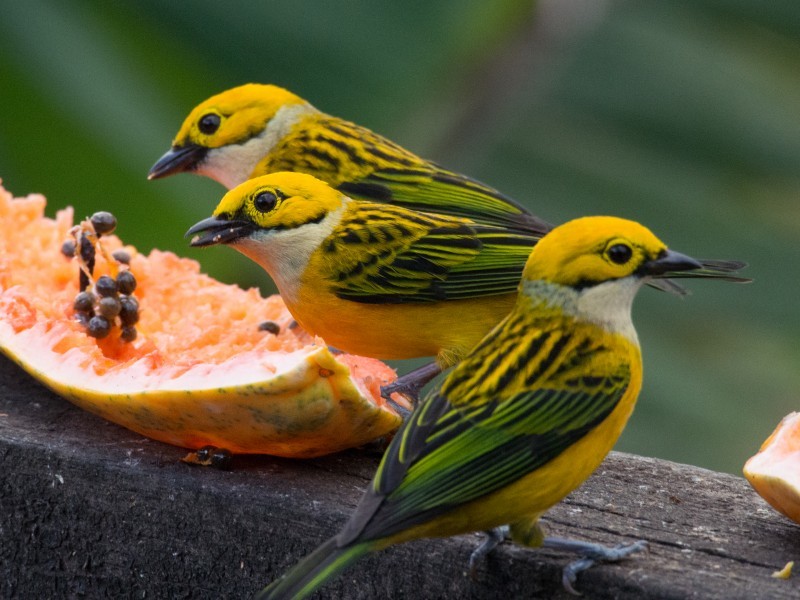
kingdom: Animalia
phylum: Chordata
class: Aves
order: Passeriformes
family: Thraupidae
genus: Tangara
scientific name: Tangara icterocephala
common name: Silver-throated tanager
